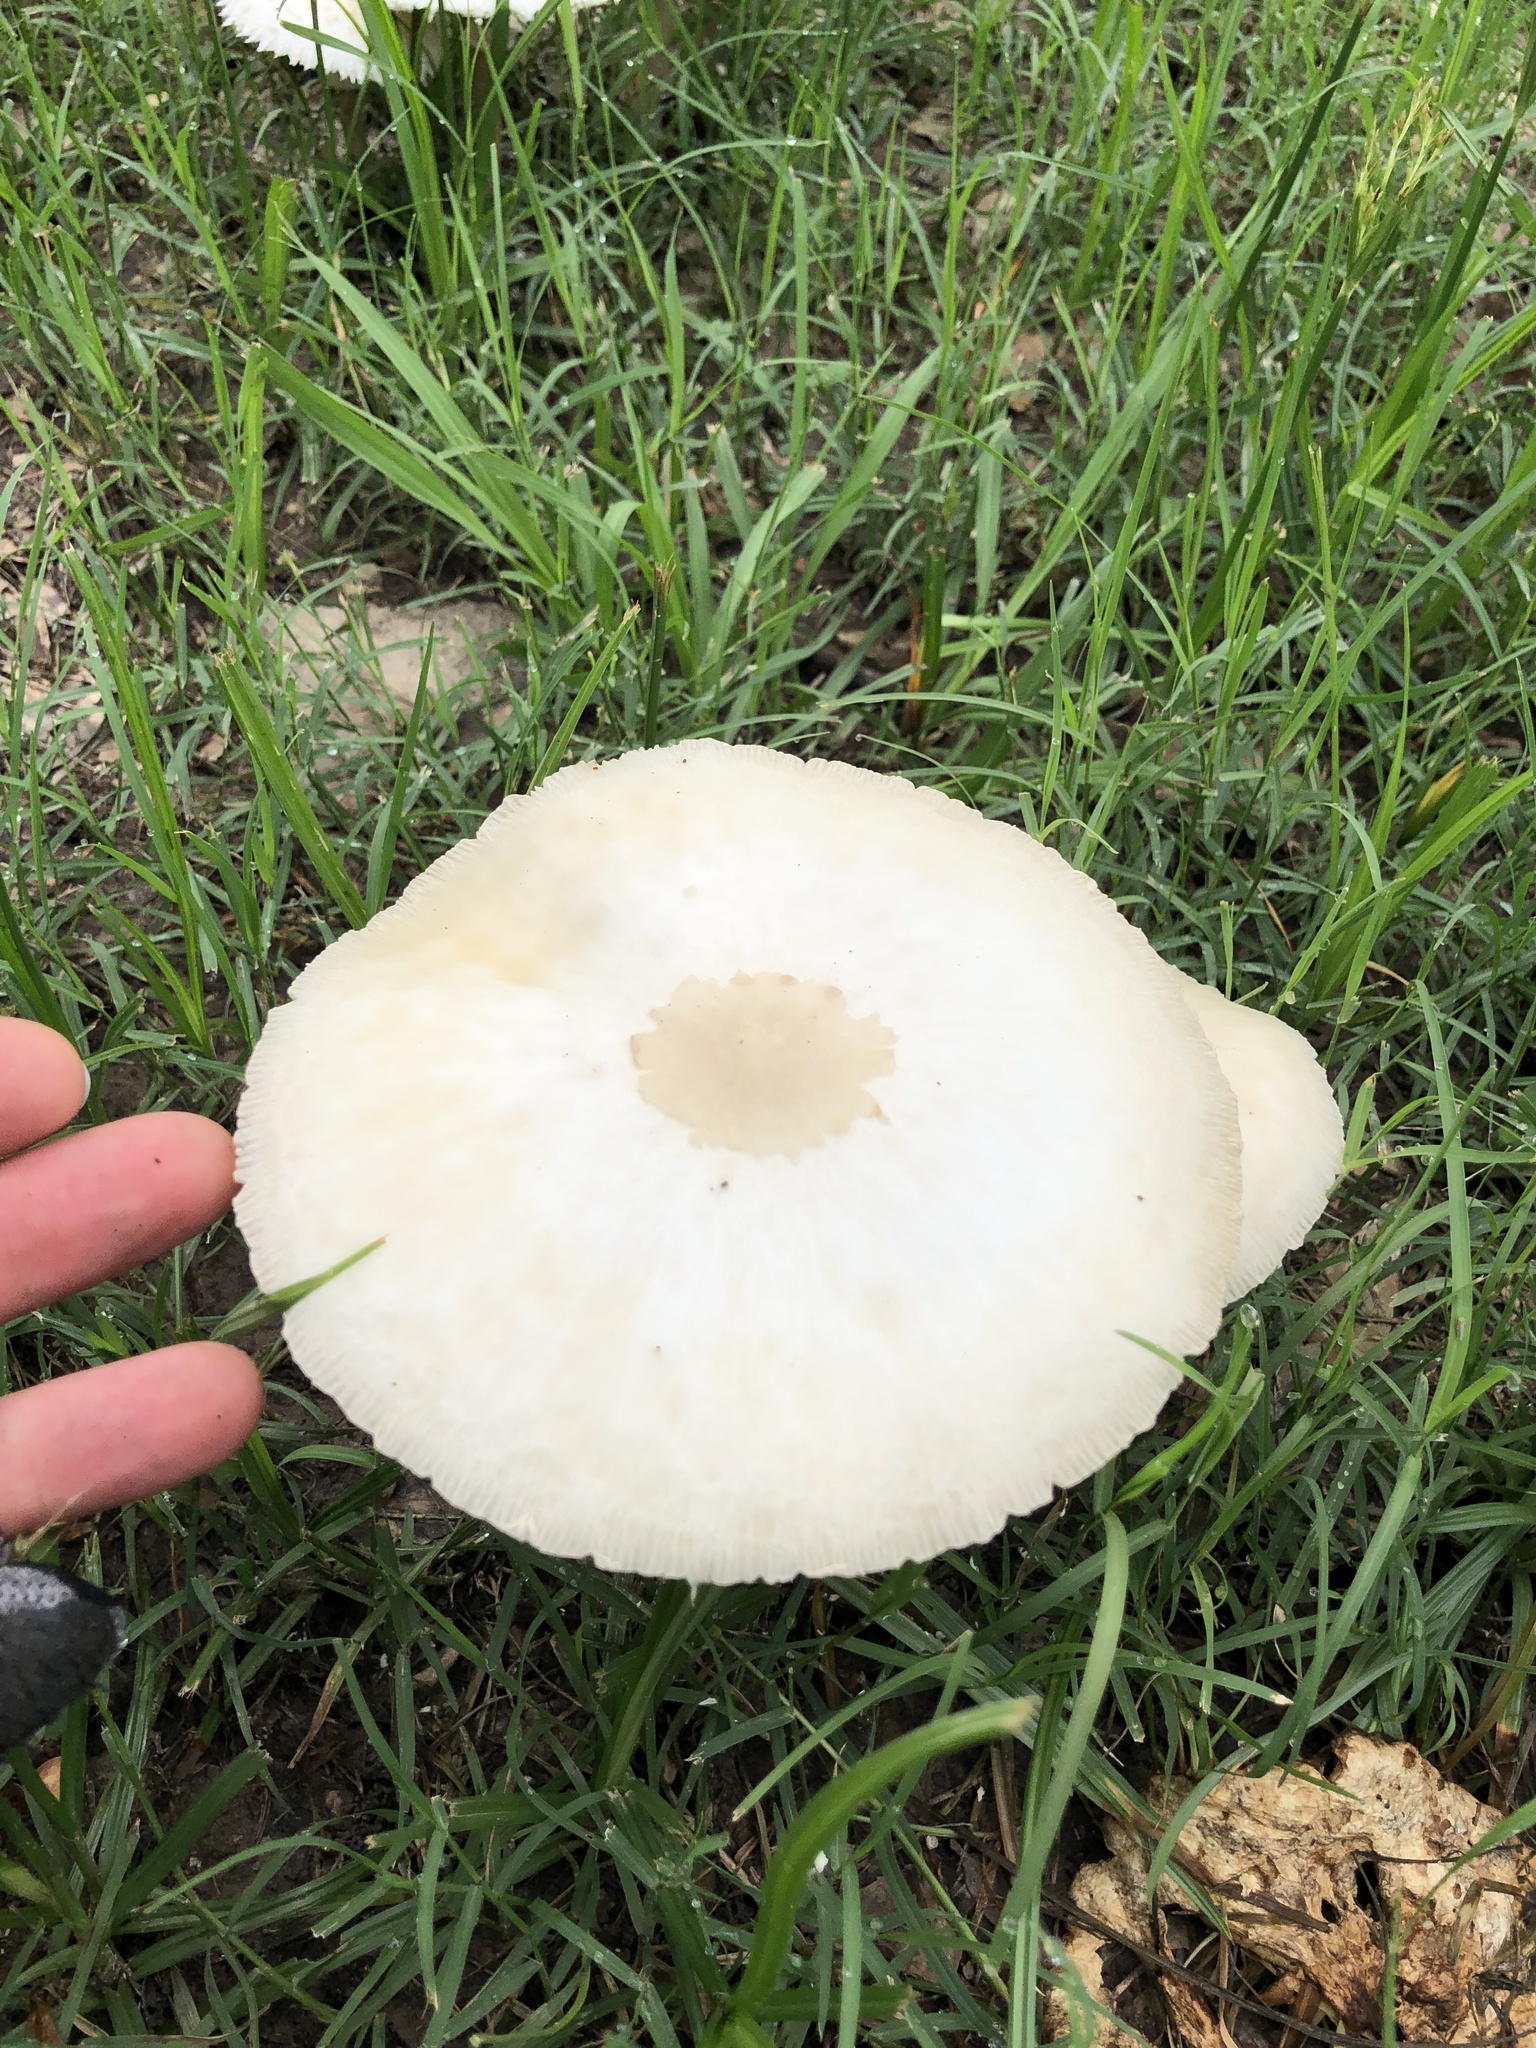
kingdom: Fungi
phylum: Basidiomycota
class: Agaricomycetes
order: Agaricales
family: Agaricaceae
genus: Chlorophyllum
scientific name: Chlorophyllum molybdites
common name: False parasol
